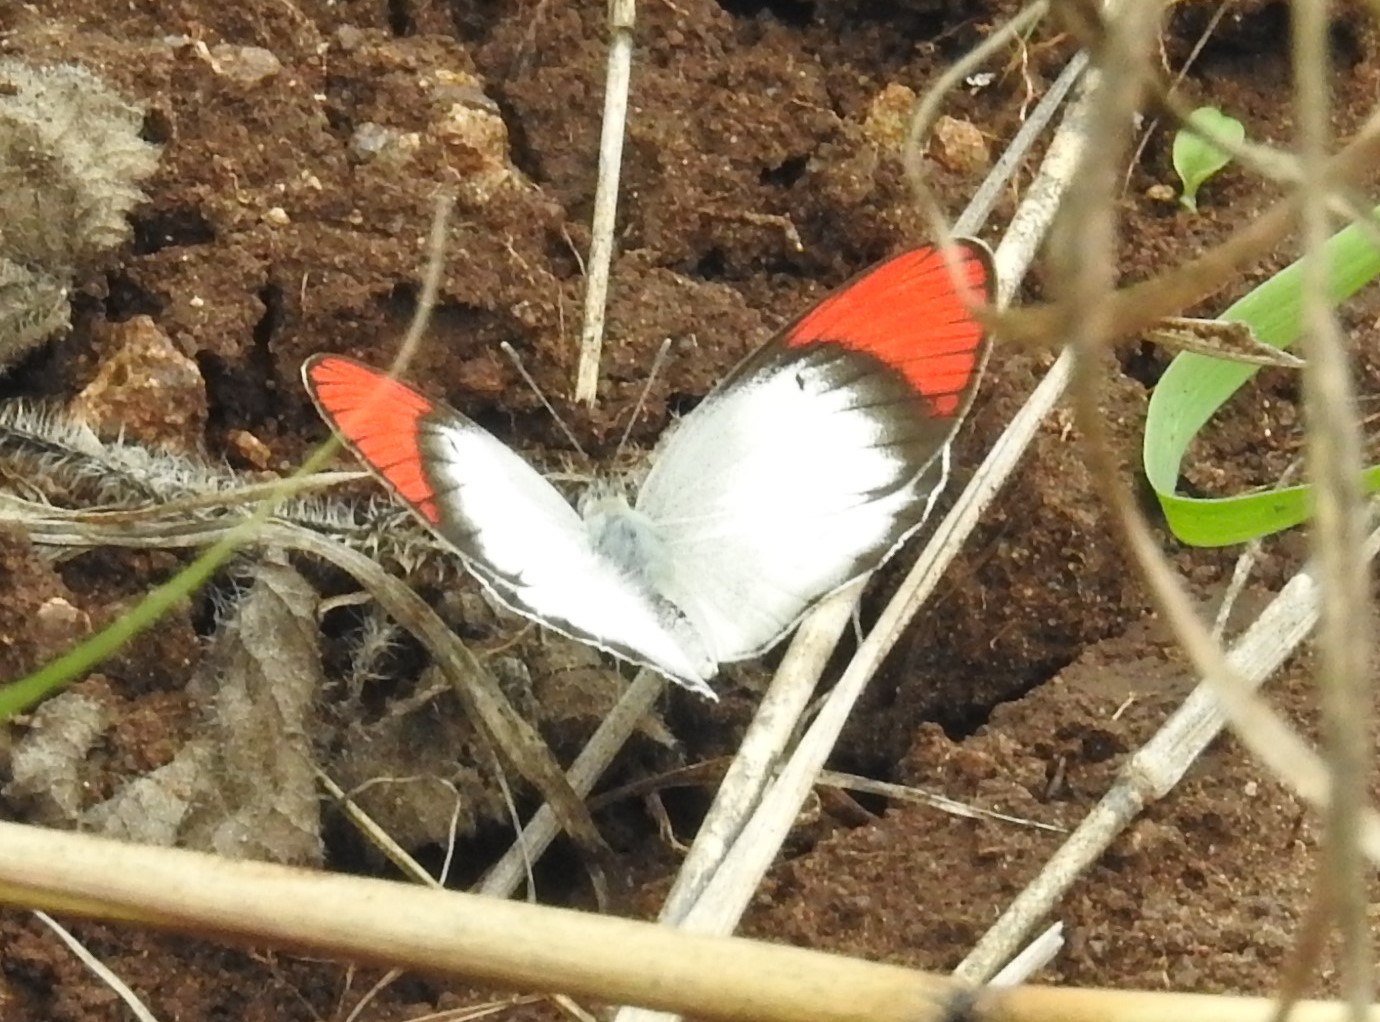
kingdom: Animalia
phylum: Arthropoda
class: Insecta
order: Lepidoptera
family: Pieridae
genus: Colotis
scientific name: Colotis danae
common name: Crimson tip
